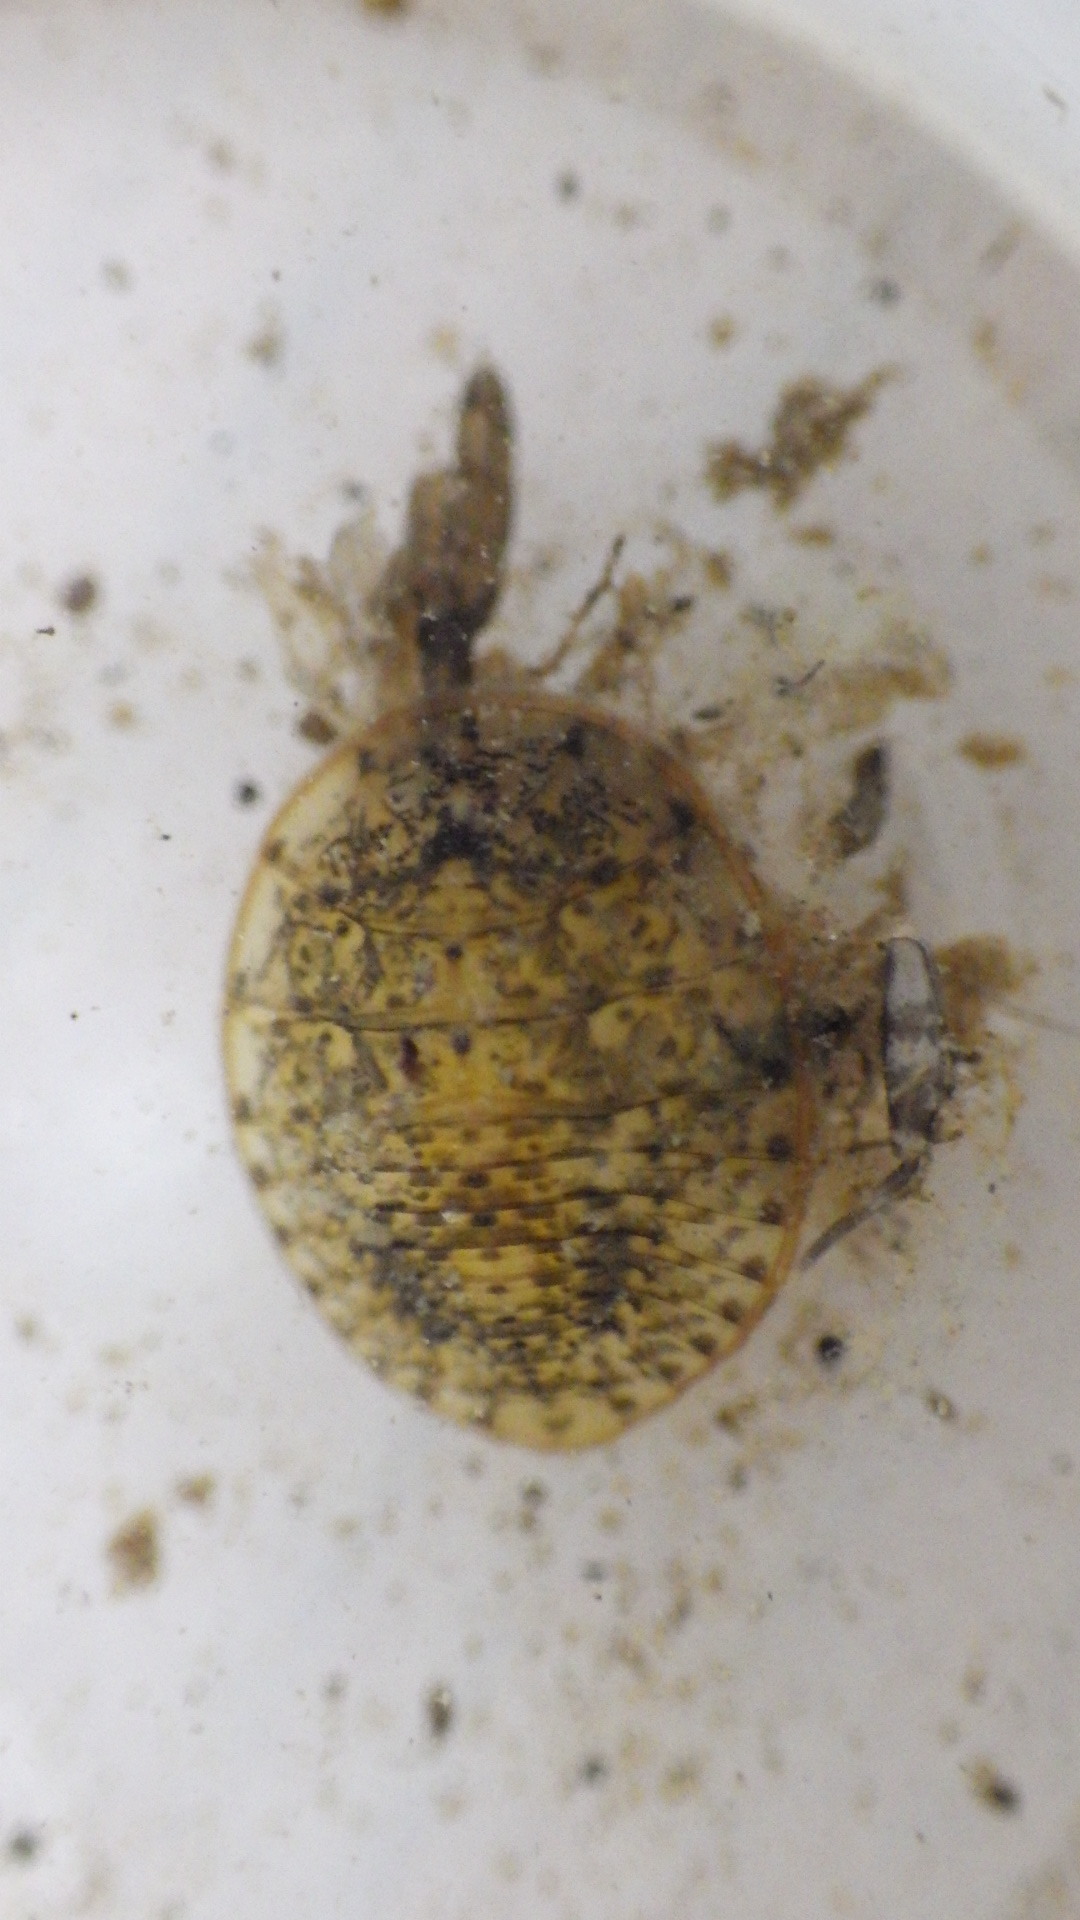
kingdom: Animalia
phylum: Arthropoda
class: Insecta
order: Coleoptera
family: Psephenidae
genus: Psephenus
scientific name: Psephenus herricki
